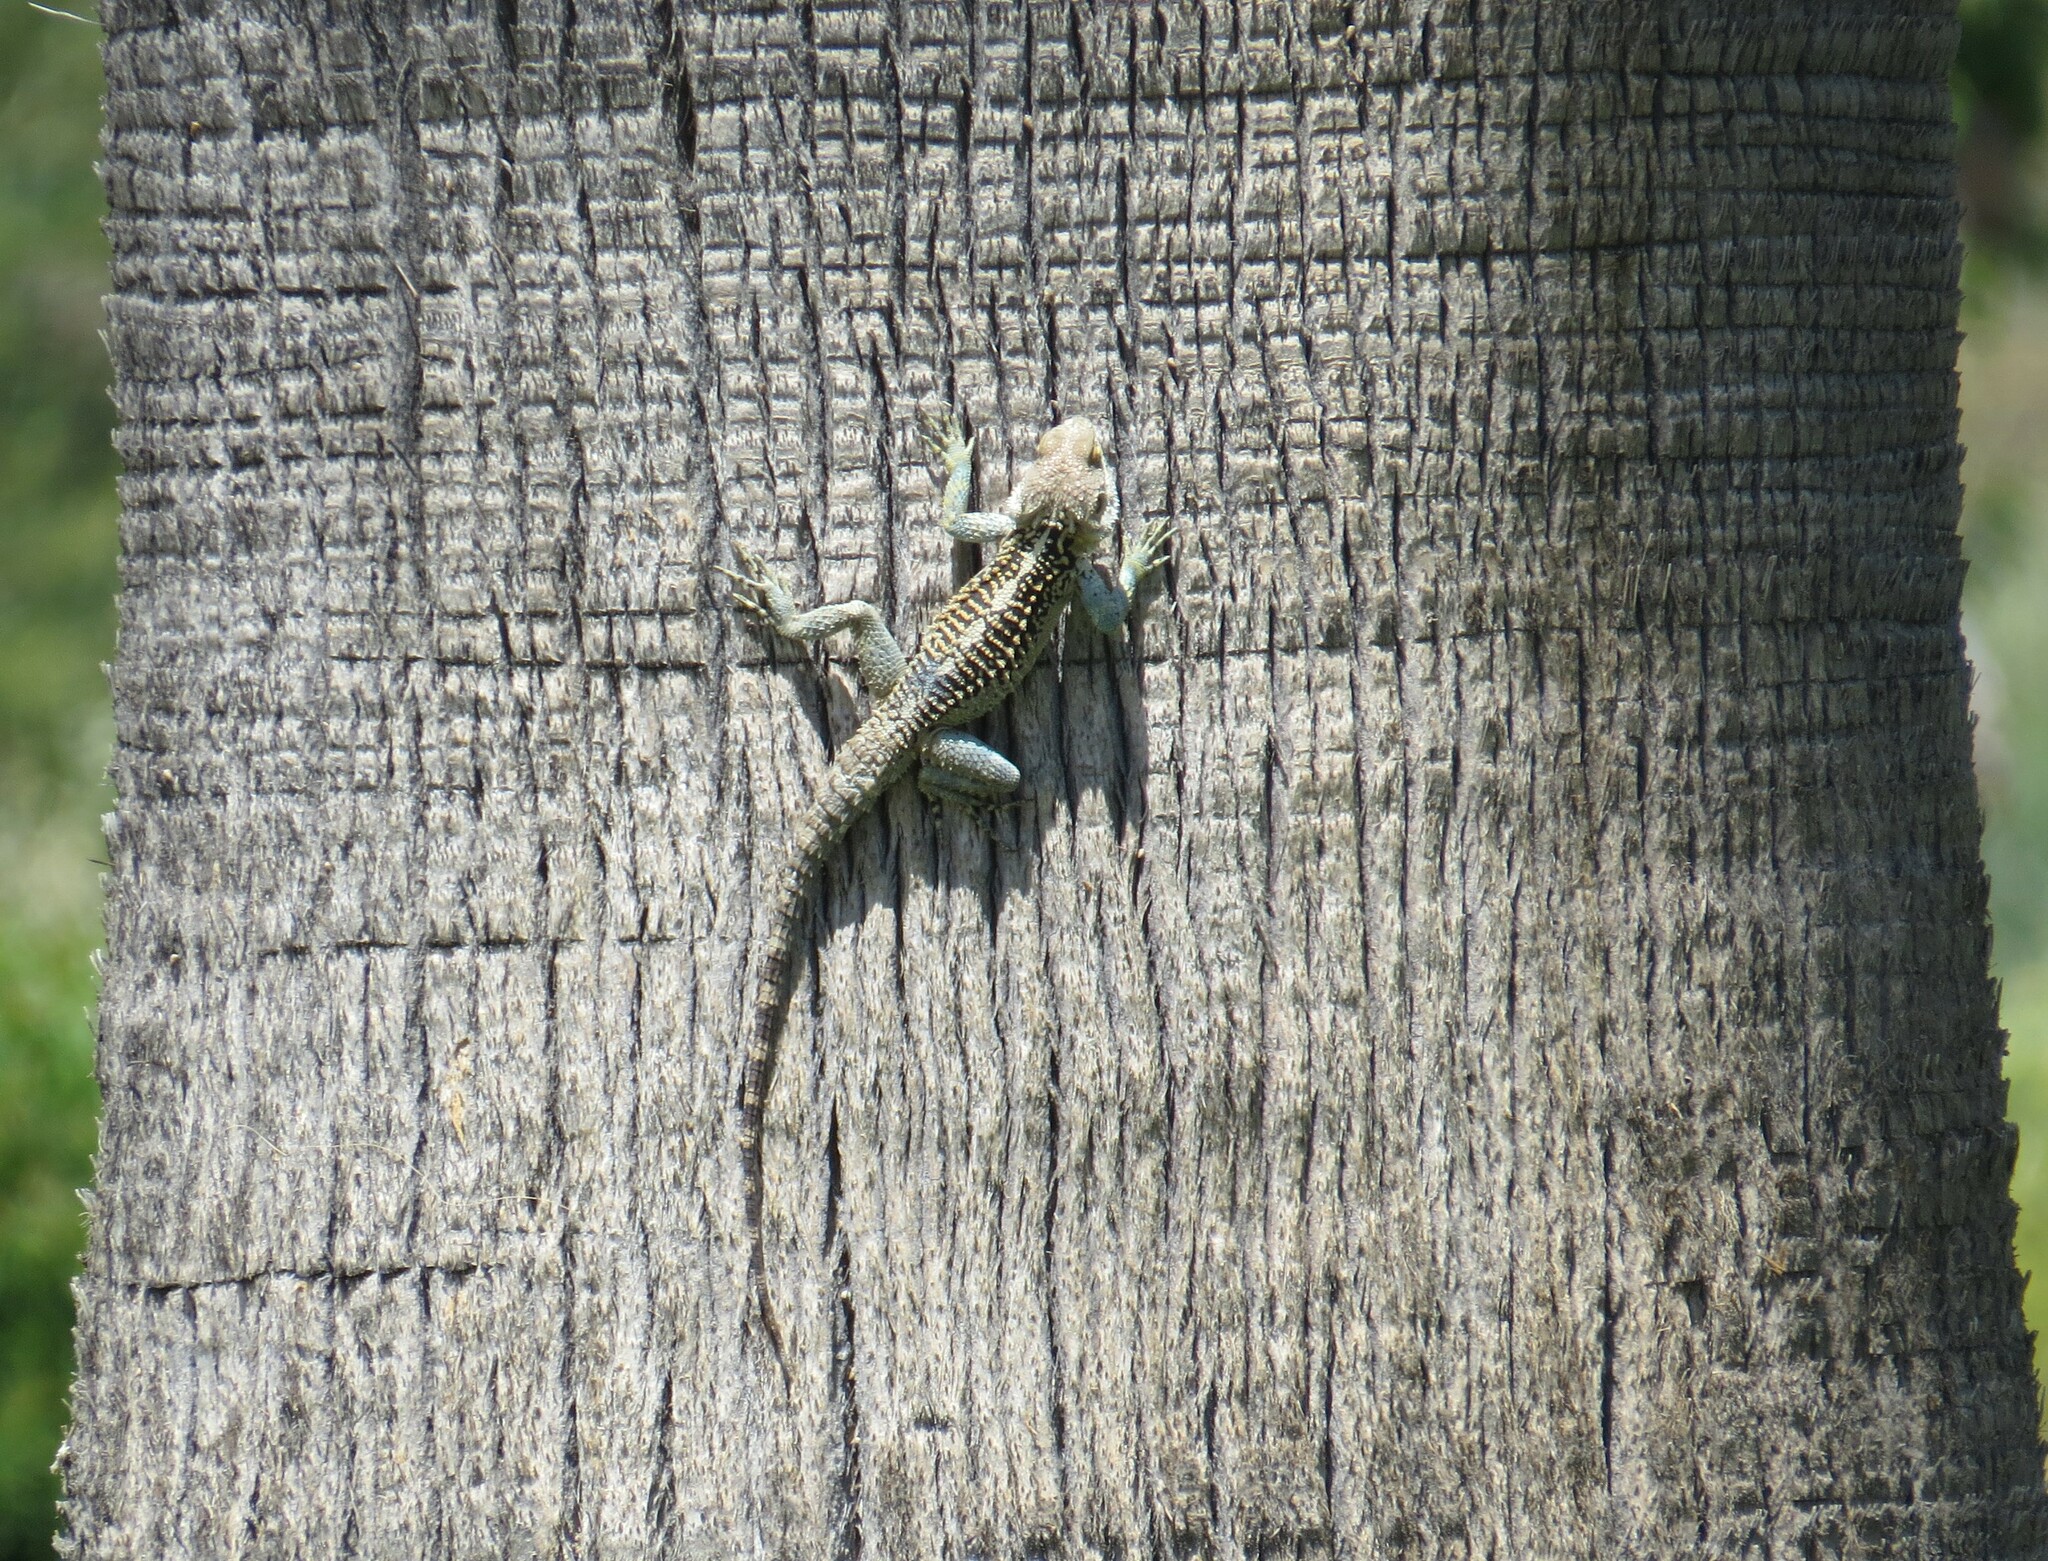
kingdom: Animalia
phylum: Chordata
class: Squamata
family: Agamidae
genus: Laudakia
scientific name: Laudakia
